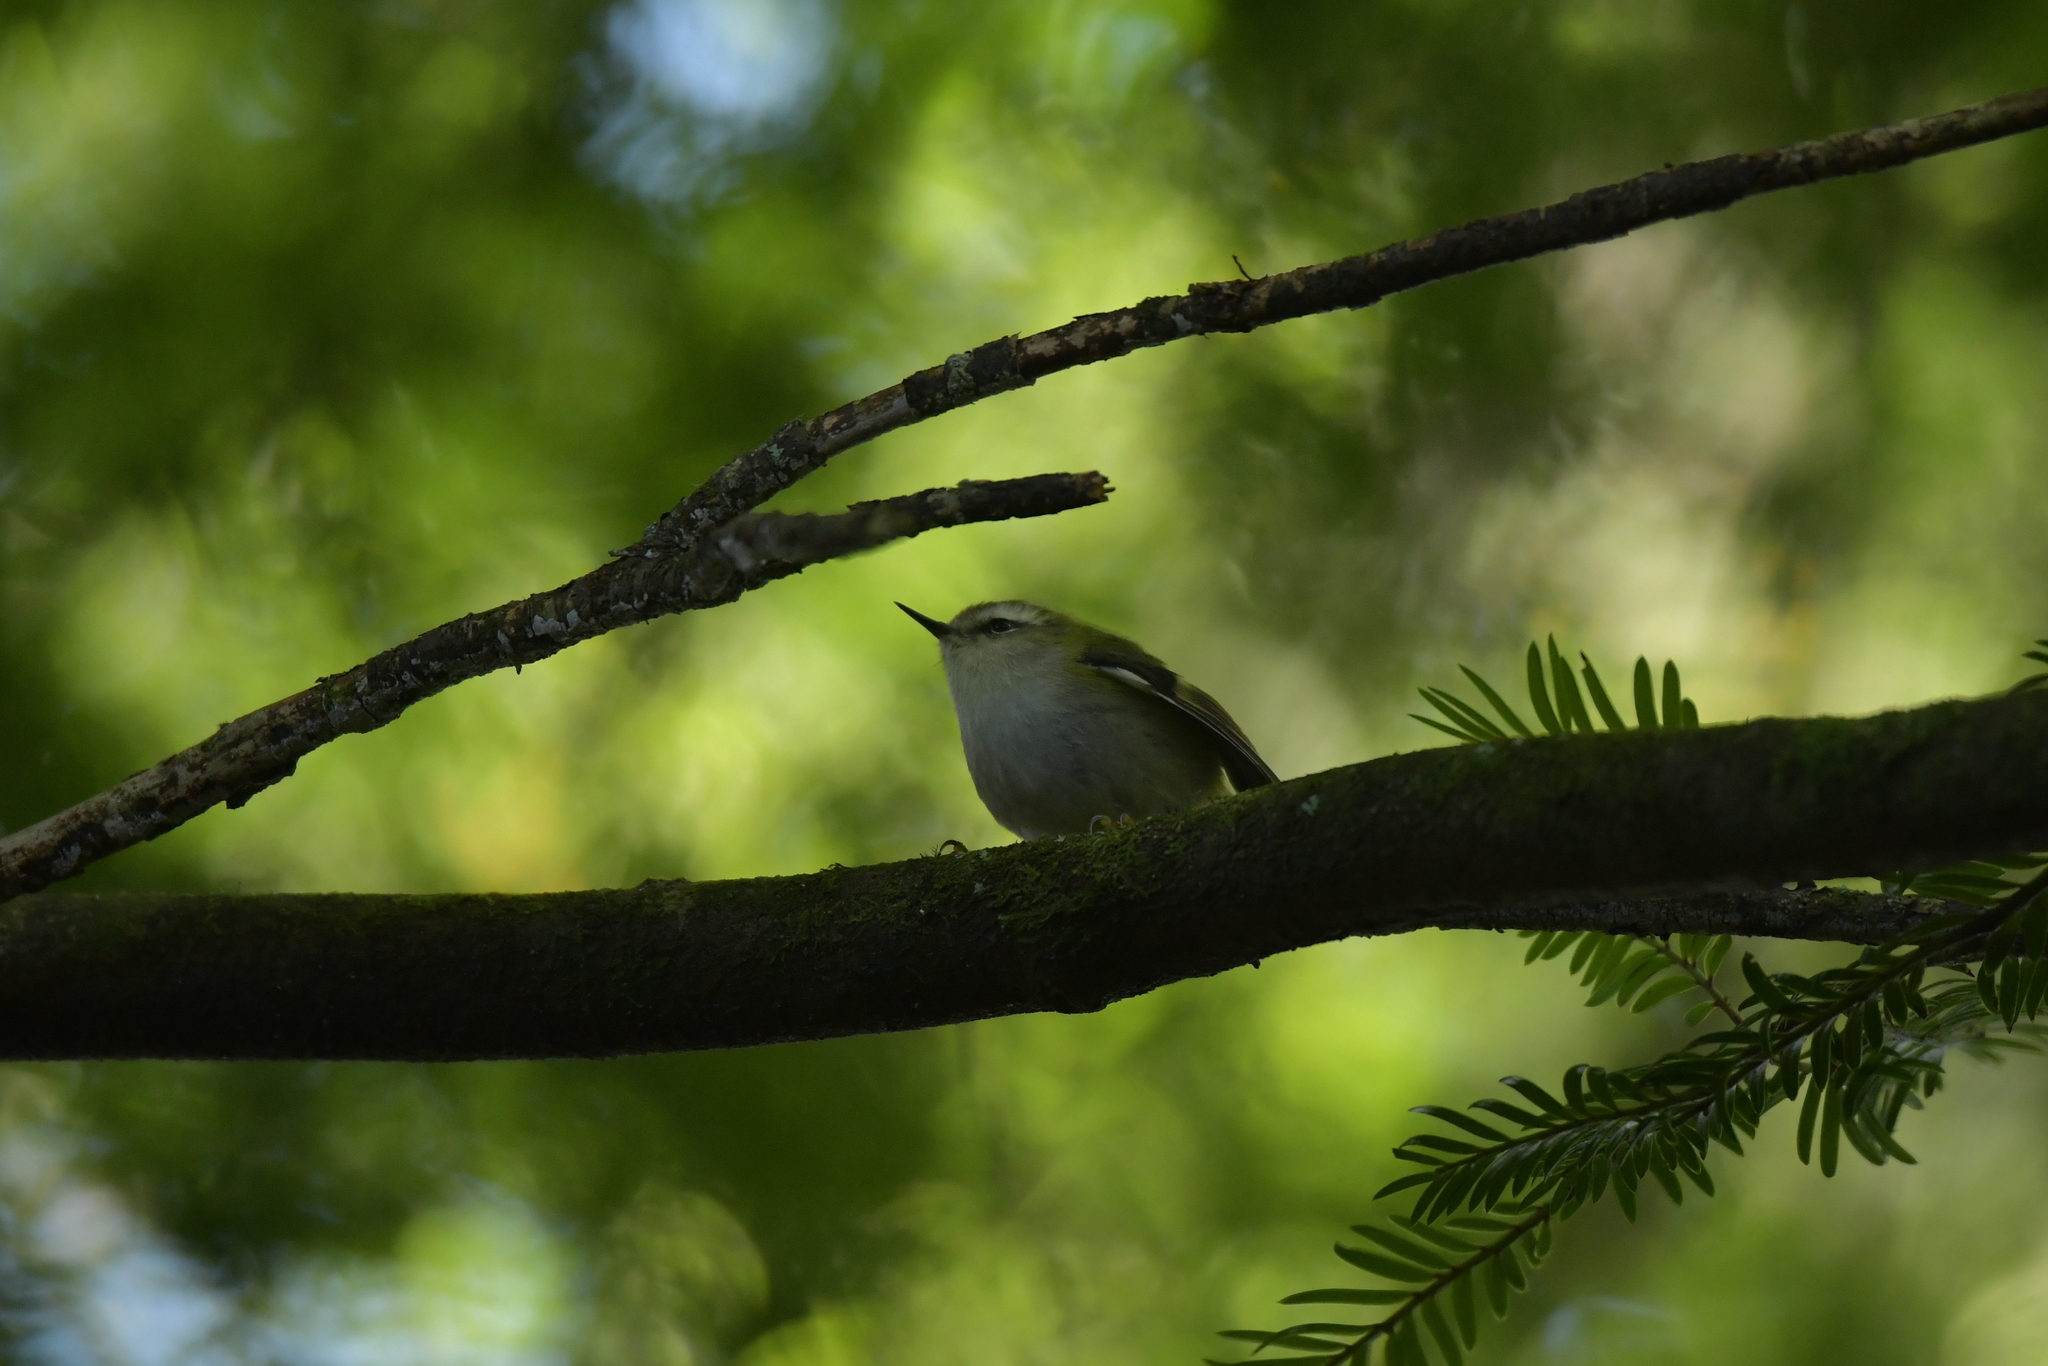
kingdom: Animalia
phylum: Chordata
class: Aves
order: Passeriformes
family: Acanthisittidae
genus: Acanthisitta
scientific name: Acanthisitta chloris
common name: Rifleman
